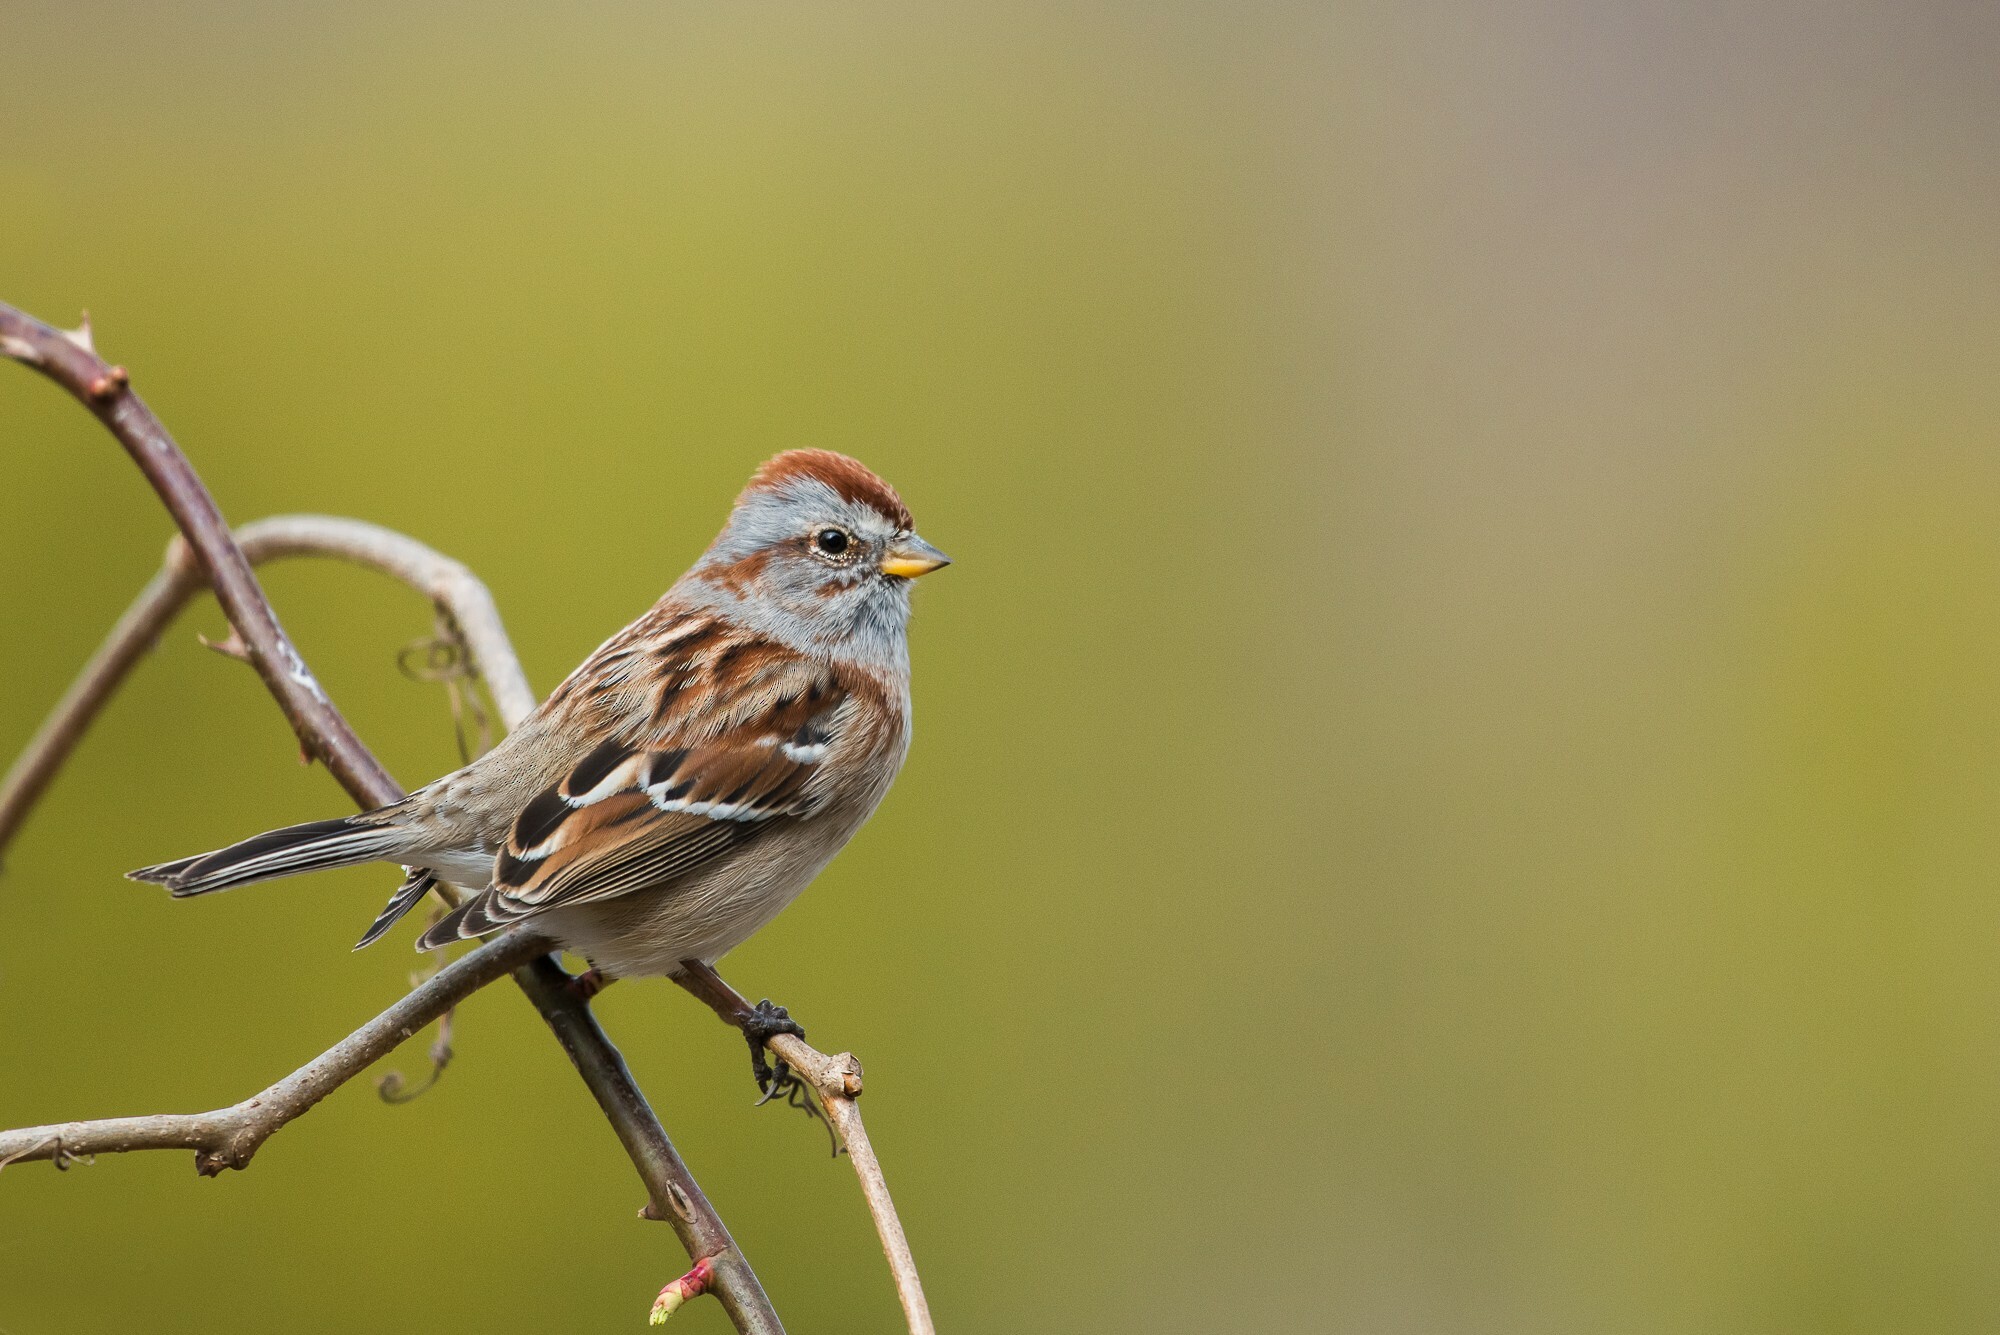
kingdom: Animalia
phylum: Chordata
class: Aves
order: Passeriformes
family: Passerellidae
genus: Spizelloides
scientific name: Spizelloides arborea
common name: American tree sparrow
